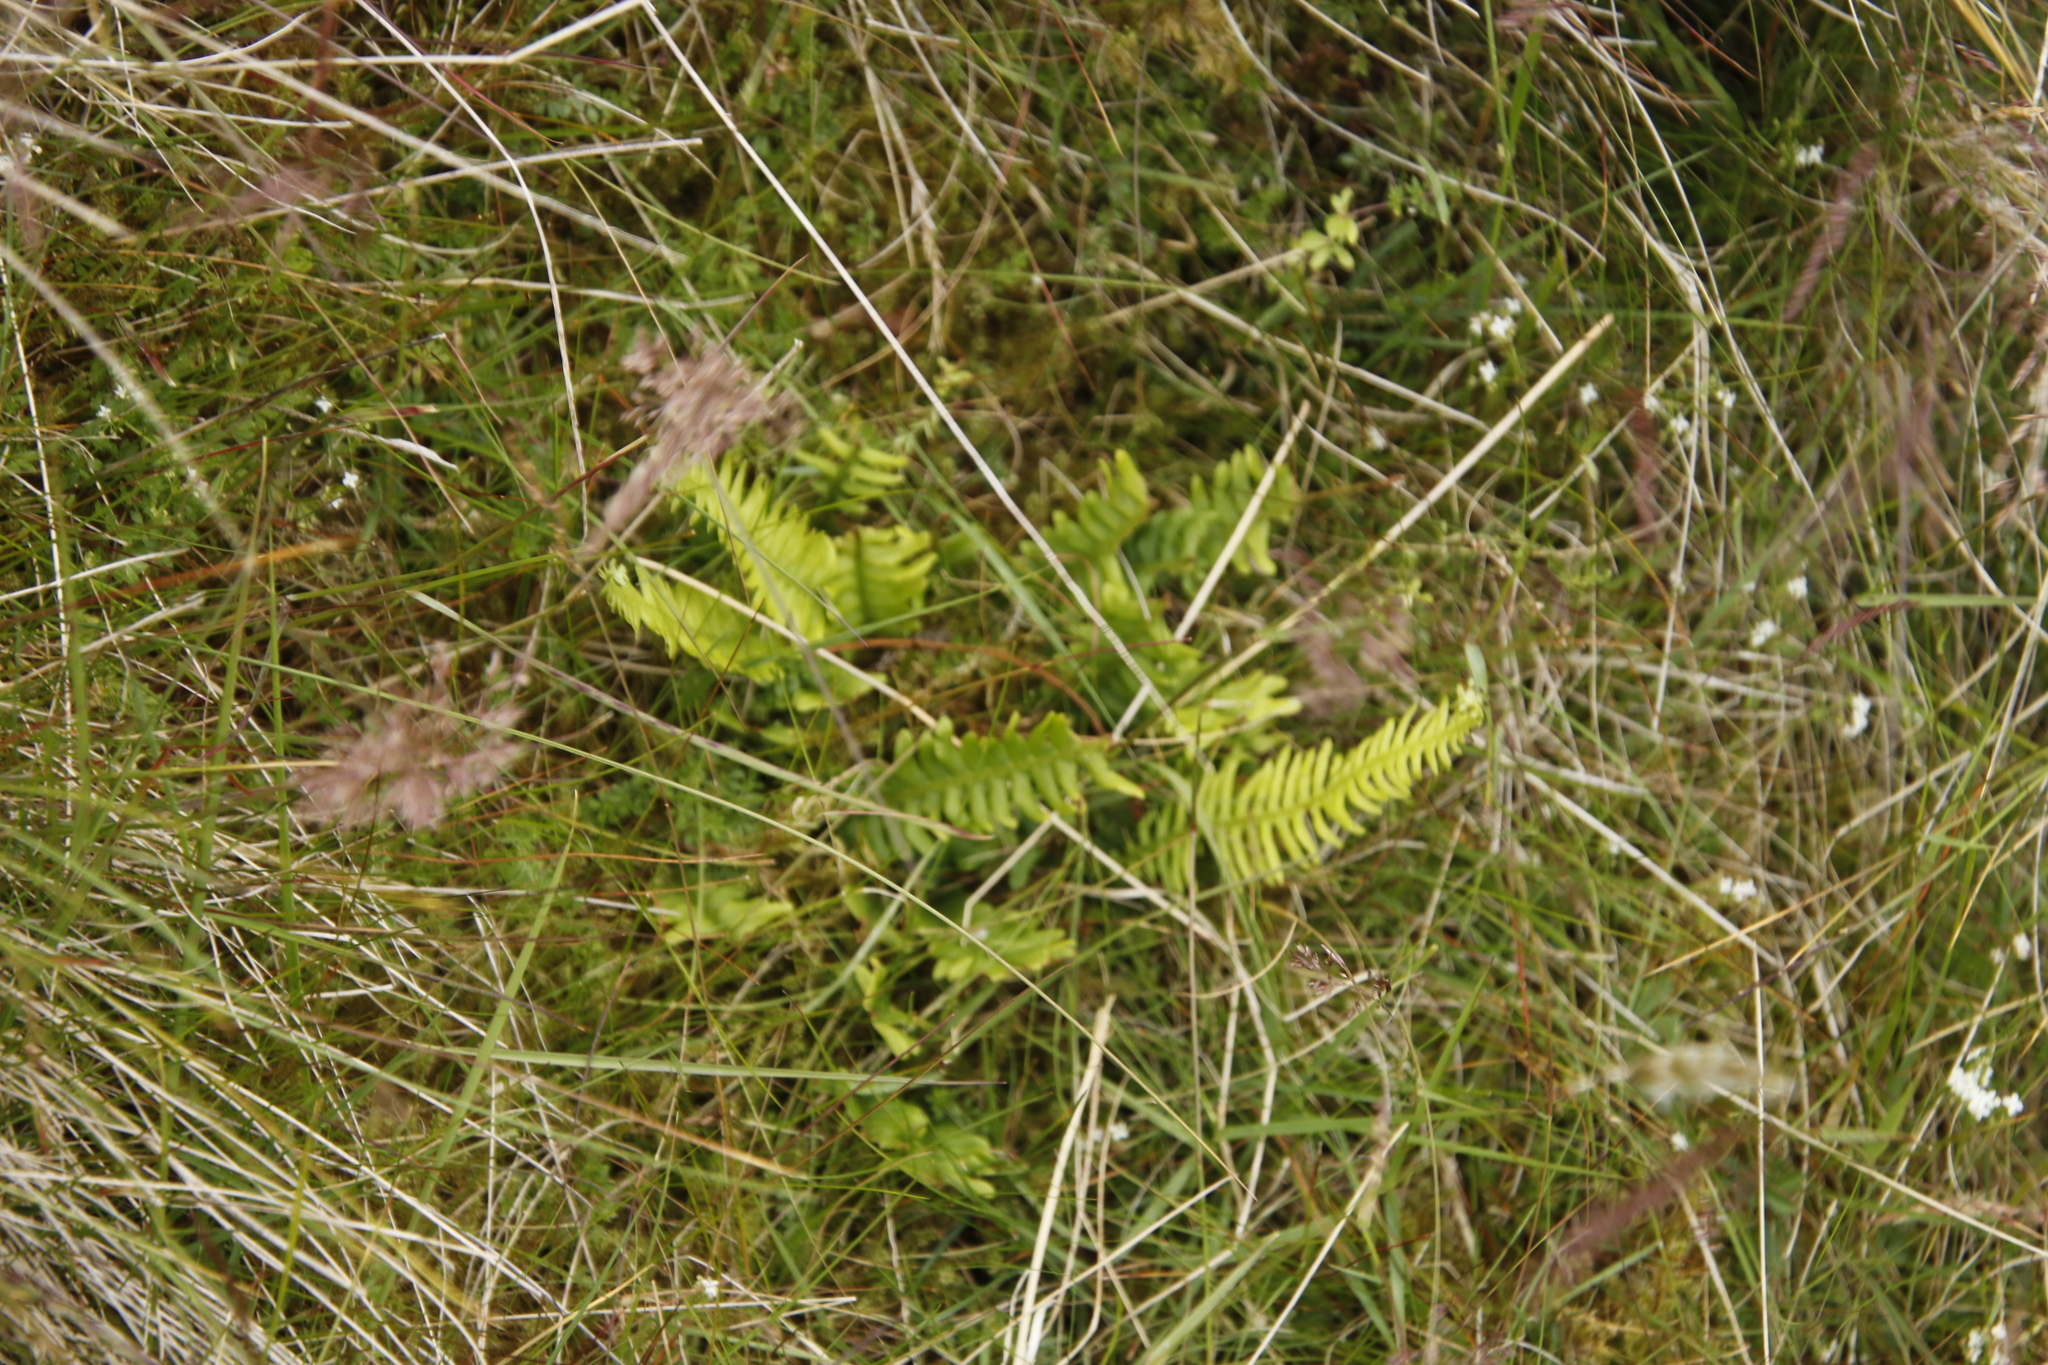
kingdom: Plantae
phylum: Tracheophyta
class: Polypodiopsida
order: Polypodiales
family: Blechnaceae
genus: Struthiopteris
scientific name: Struthiopteris spicant
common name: Deer fern
